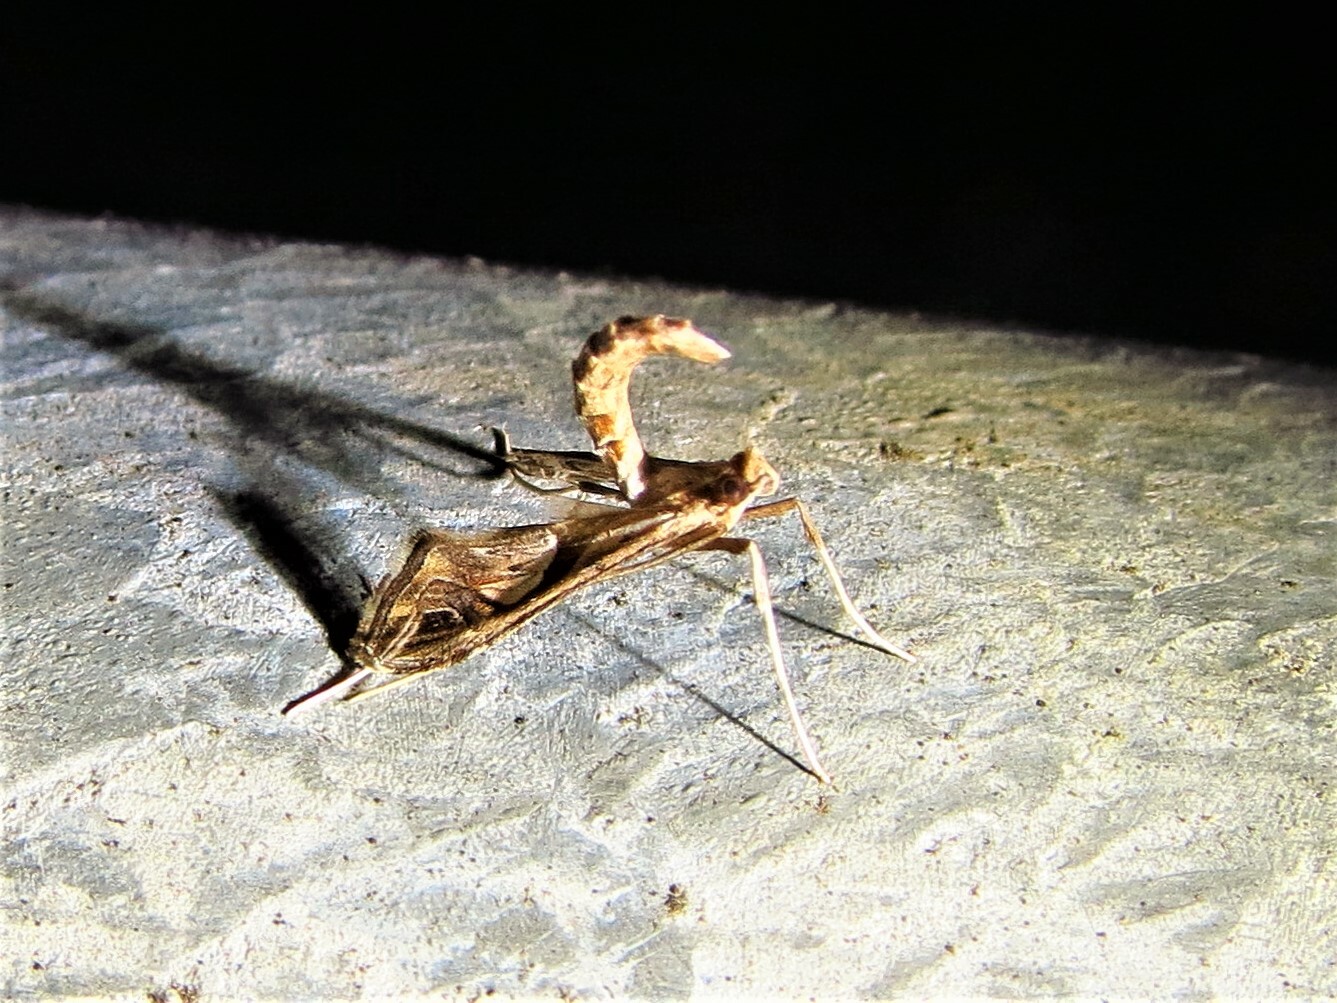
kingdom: Animalia
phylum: Arthropoda
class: Insecta
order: Lepidoptera
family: Crambidae
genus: Lineodes
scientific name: Lineodes integra
